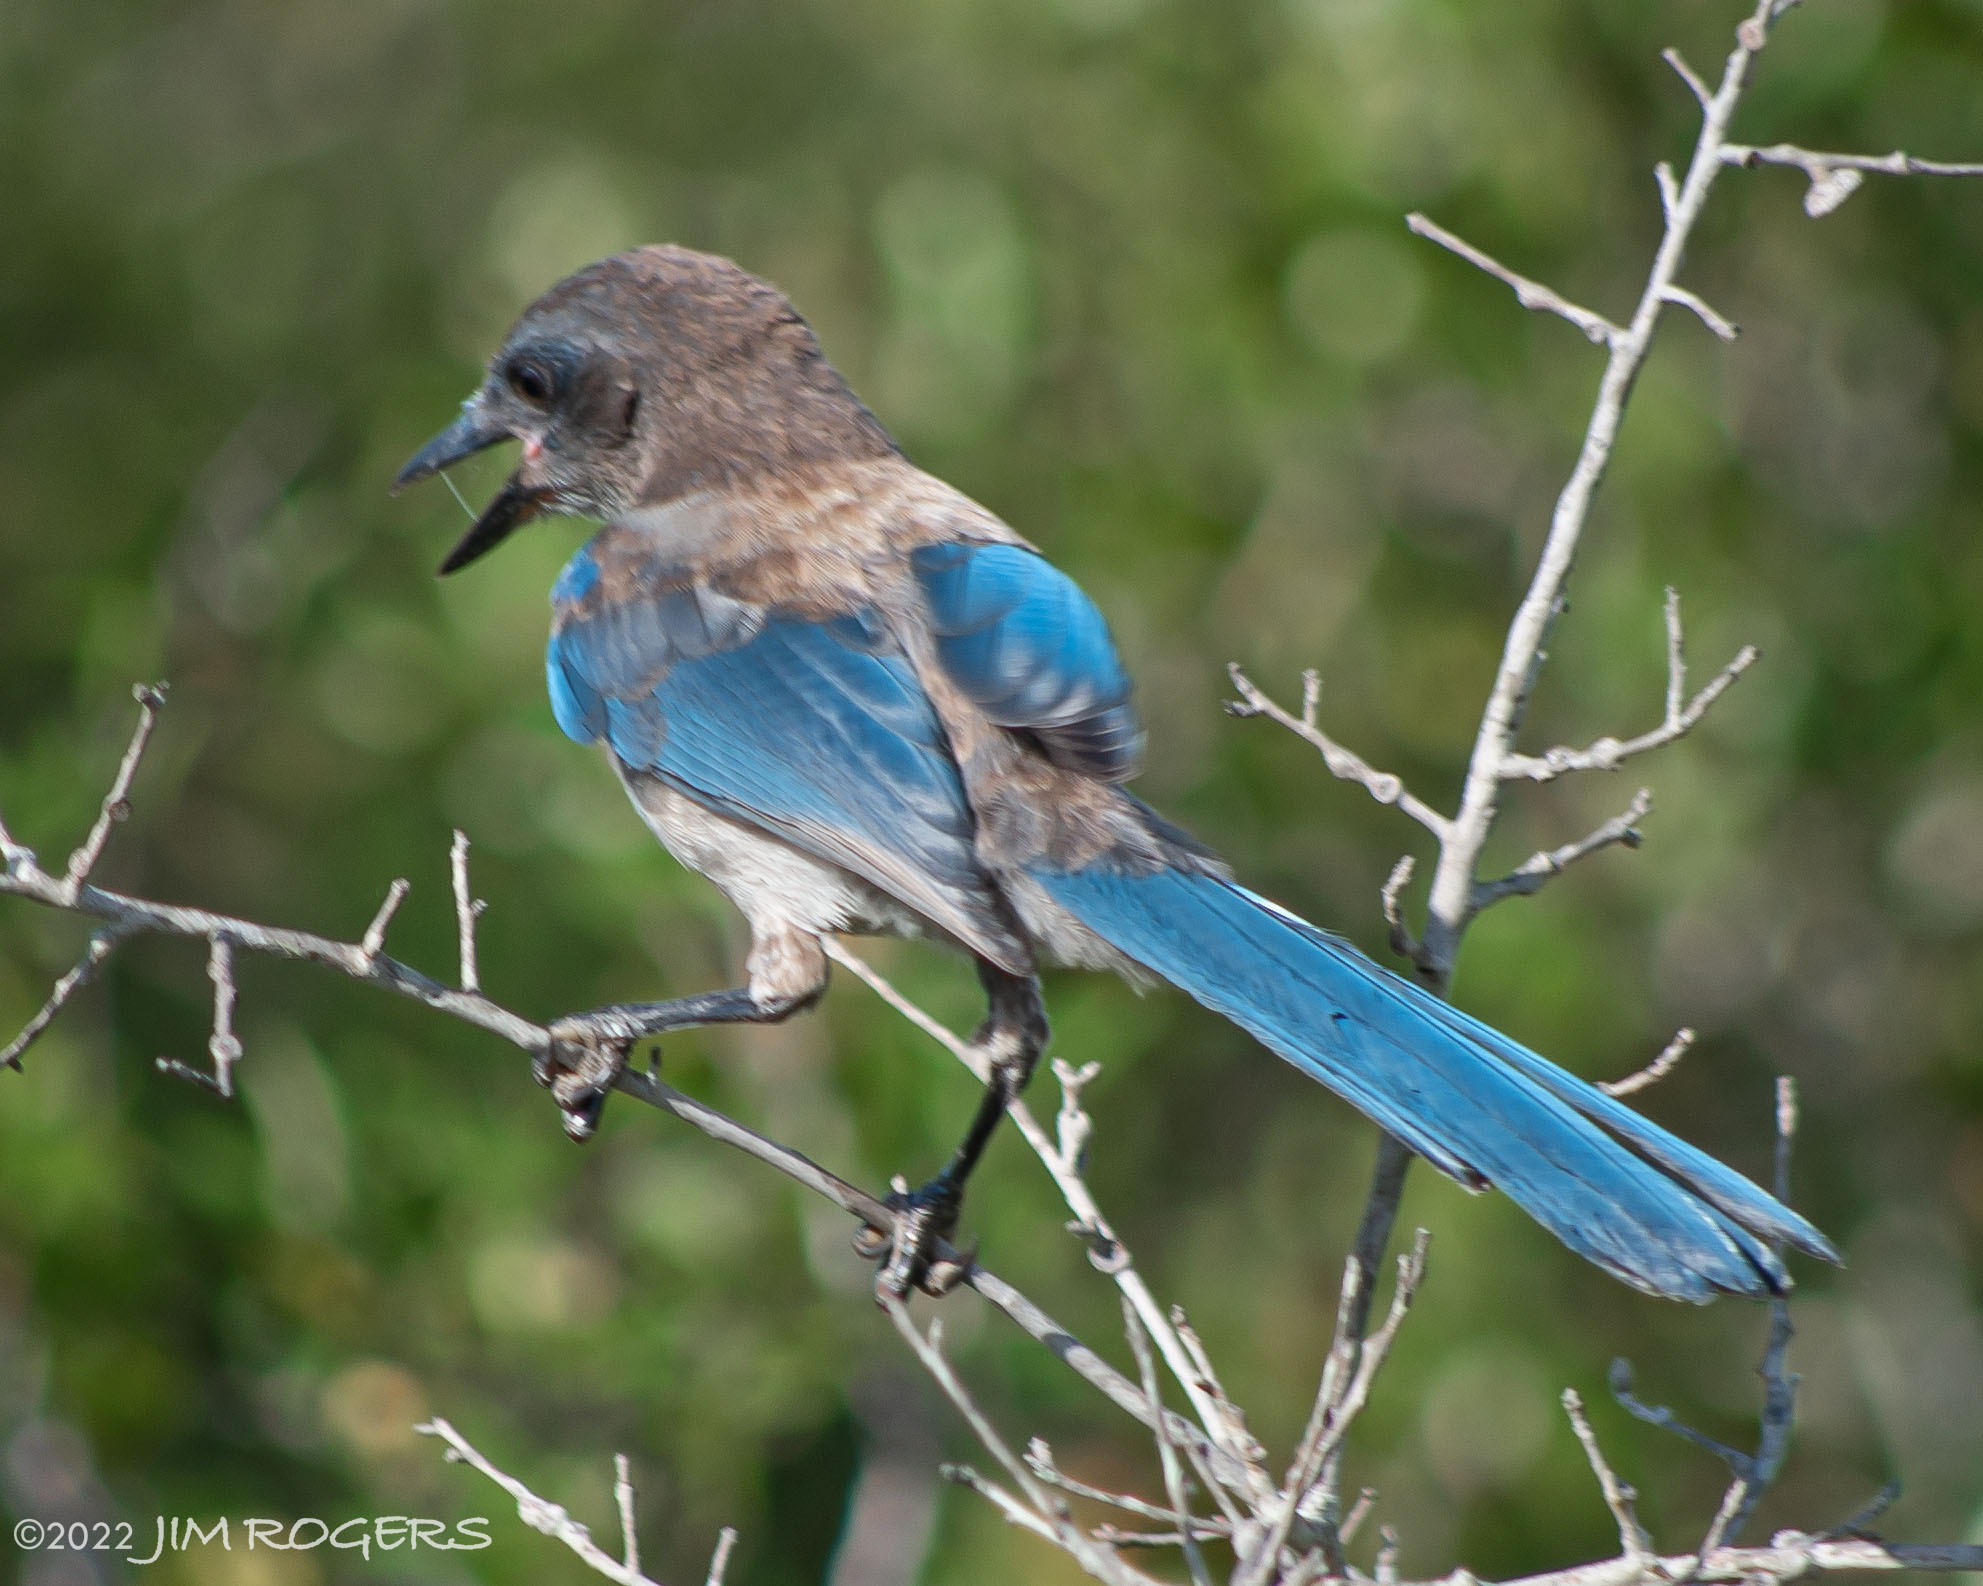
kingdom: Animalia
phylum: Chordata
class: Aves
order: Passeriformes
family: Corvidae
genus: Aphelocoma
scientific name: Aphelocoma coerulescens
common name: Florida scrub jay
